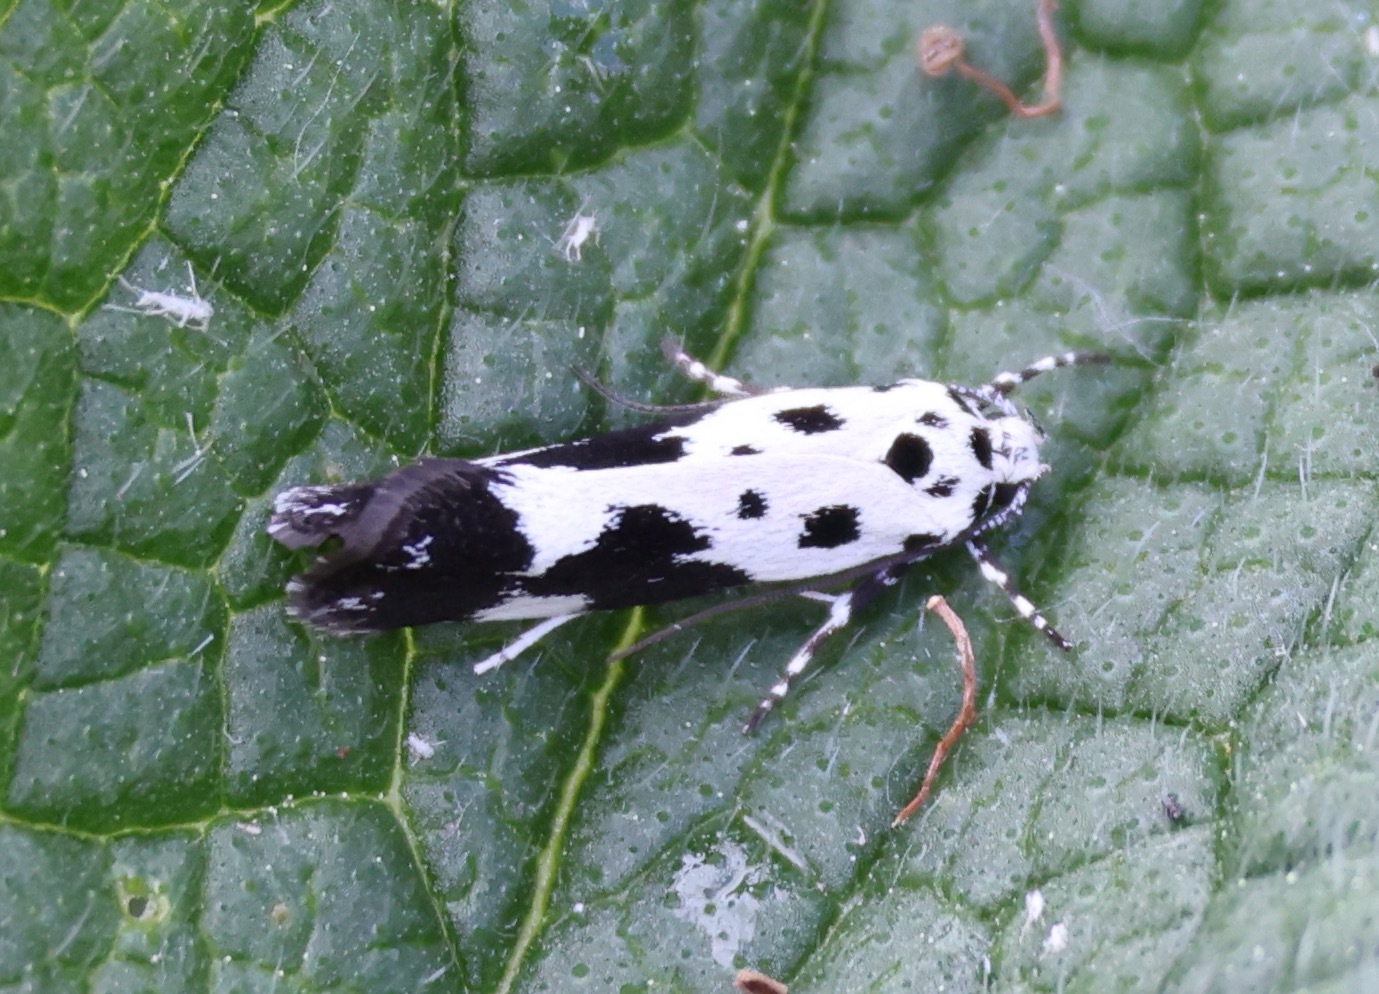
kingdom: Animalia
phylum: Arthropoda
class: Insecta
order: Lepidoptera
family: Ethmiidae
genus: Ethmia
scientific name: Ethmia quadrillella
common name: Comfrey ermel
